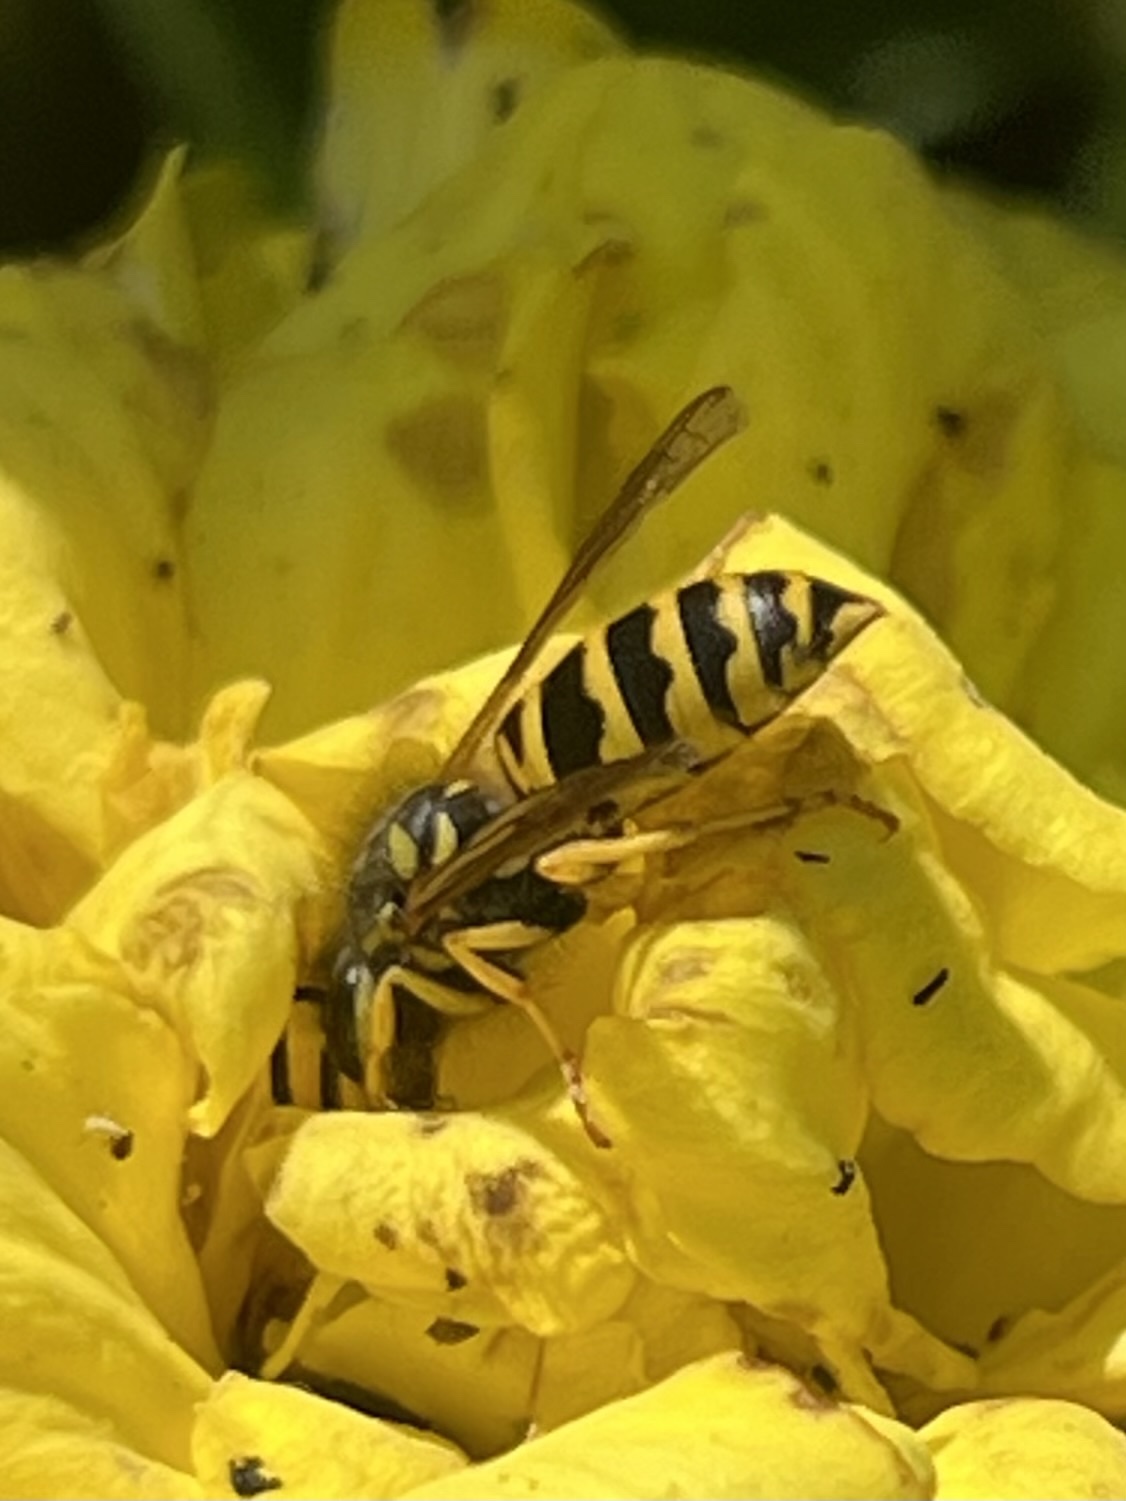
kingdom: Animalia
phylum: Arthropoda
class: Insecta
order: Hymenoptera
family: Vespidae
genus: Vespula
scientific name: Vespula maculifrons
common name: Eastern yellowjacket
